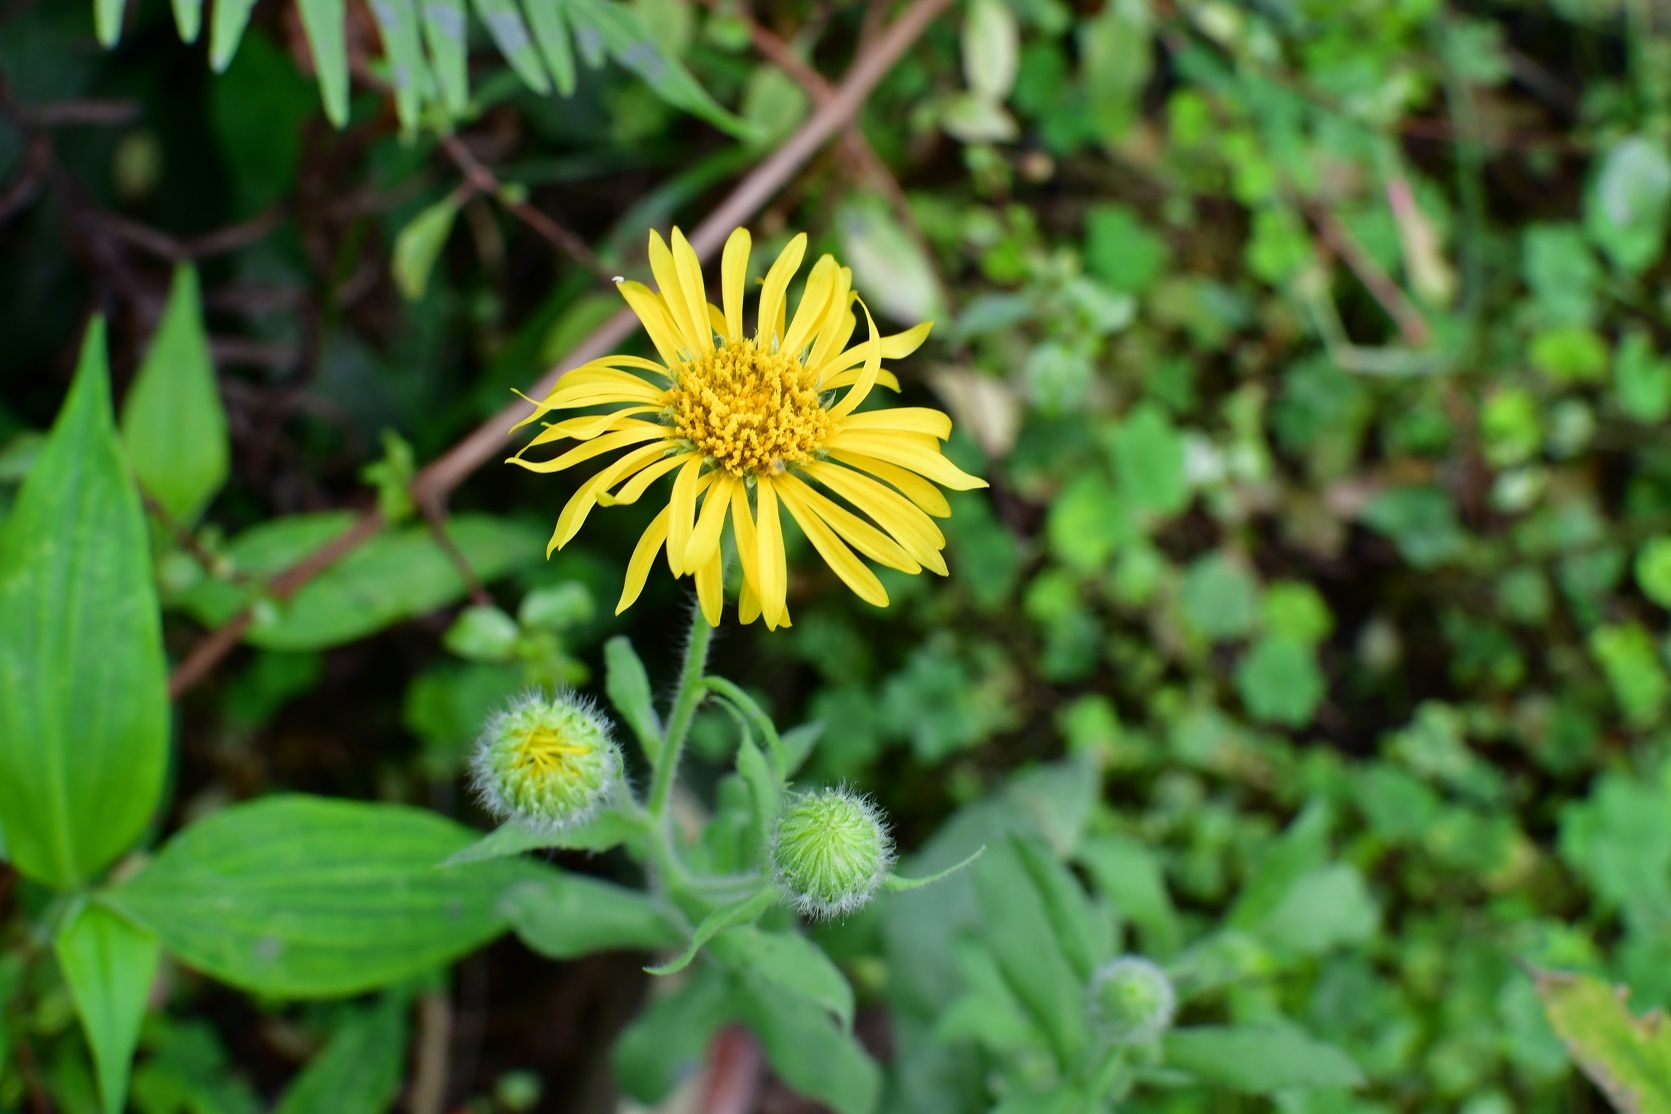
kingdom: Plantae
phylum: Tracheophyta
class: Magnoliopsida
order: Asterales
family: Asteraceae
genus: Heterotheca
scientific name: Heterotheca inuloides
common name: False arnica
